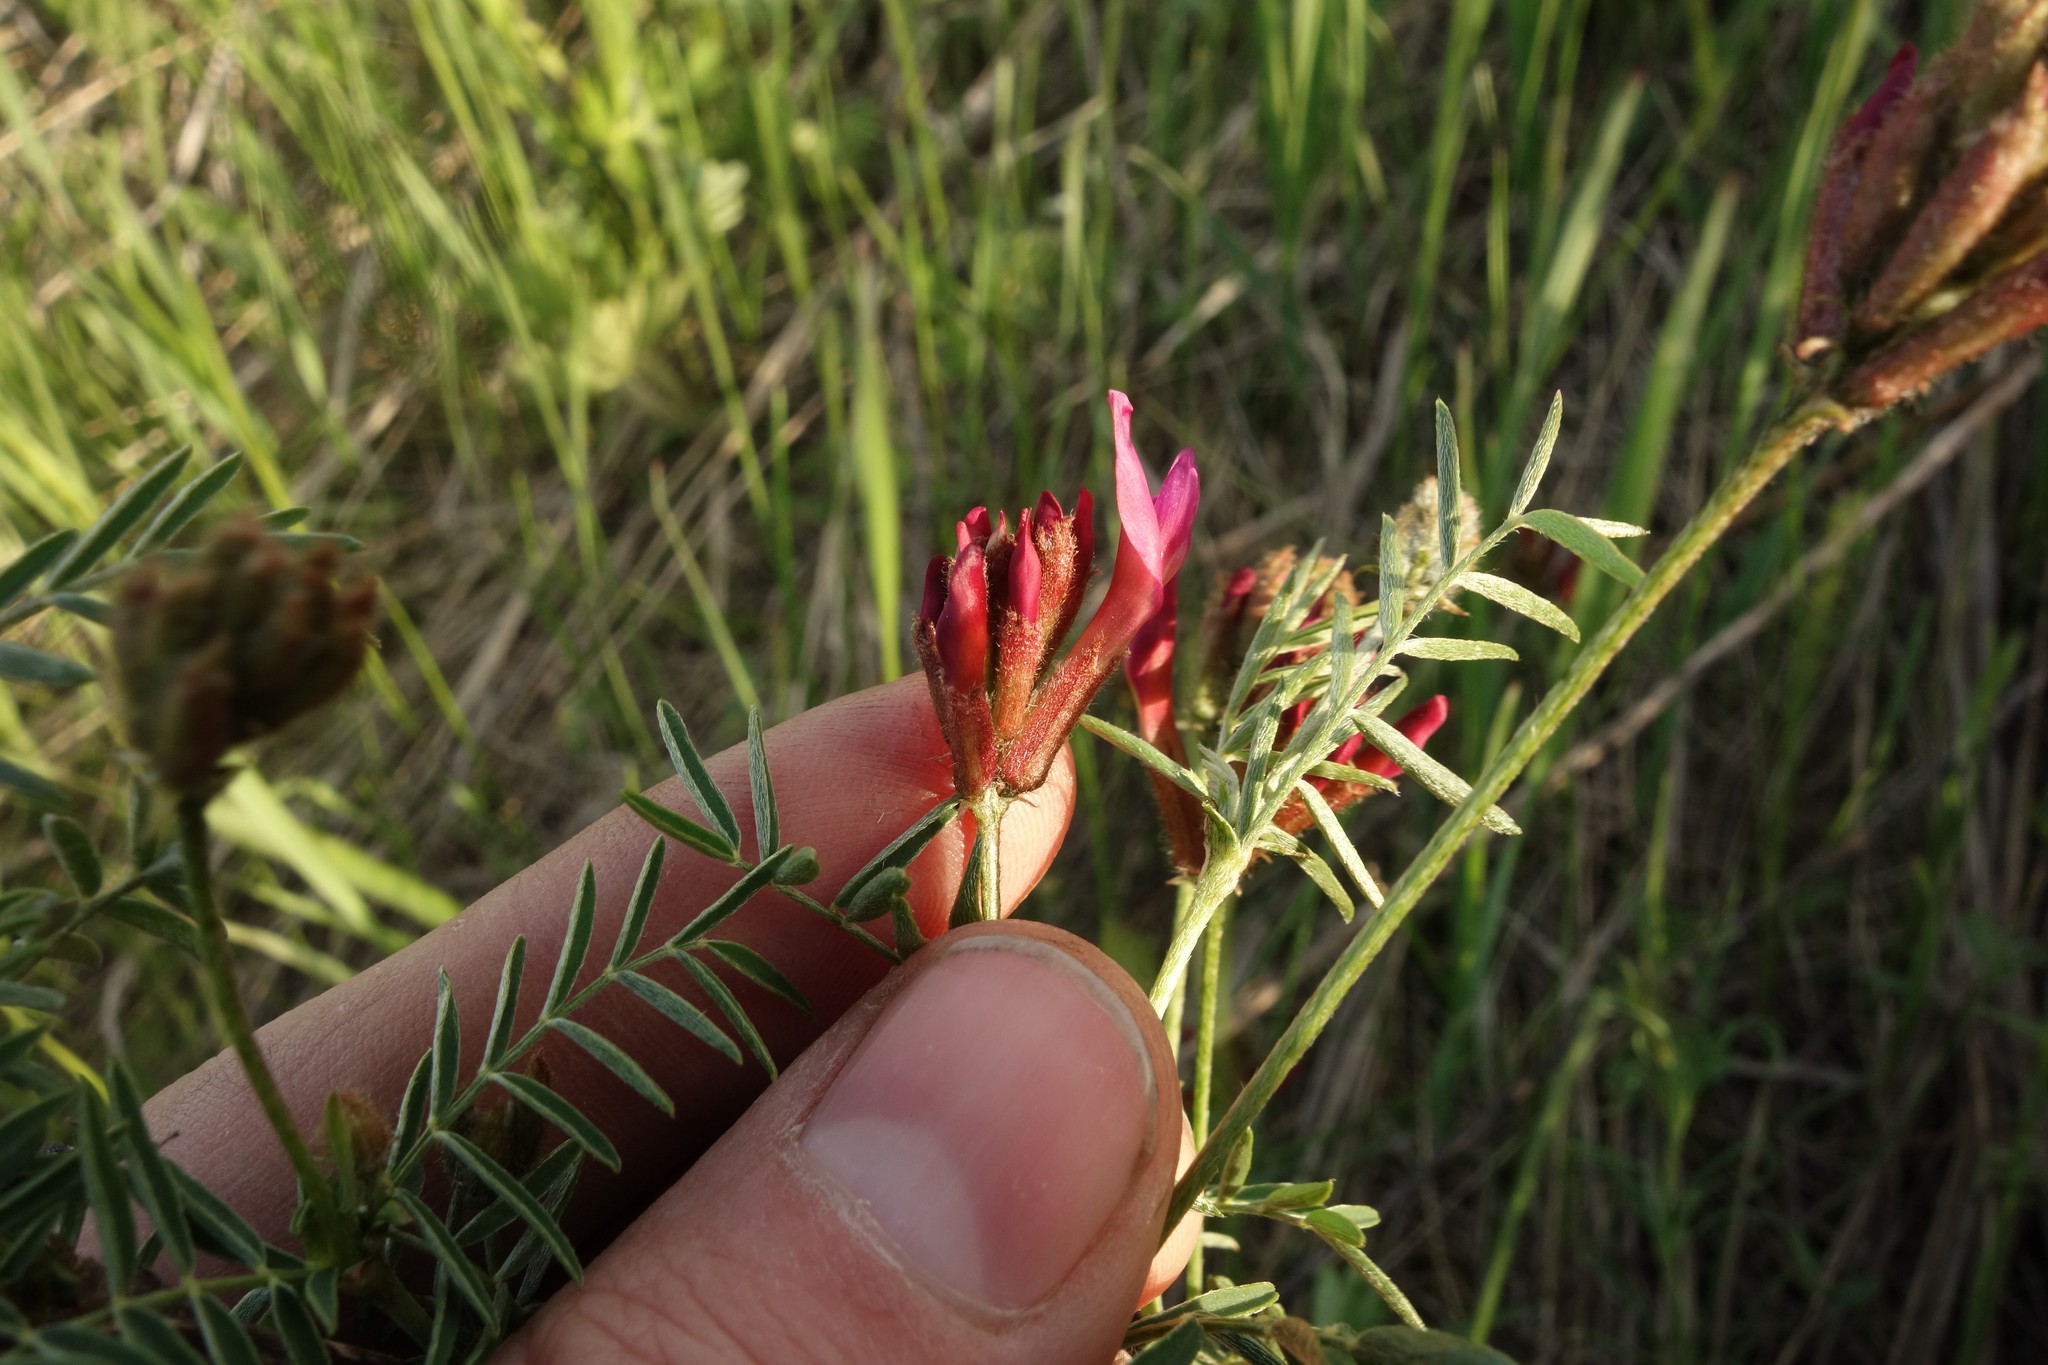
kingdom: Plantae
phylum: Tracheophyta
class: Magnoliopsida
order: Fabales
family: Fabaceae
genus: Astragalus
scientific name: Astragalus cornutus
